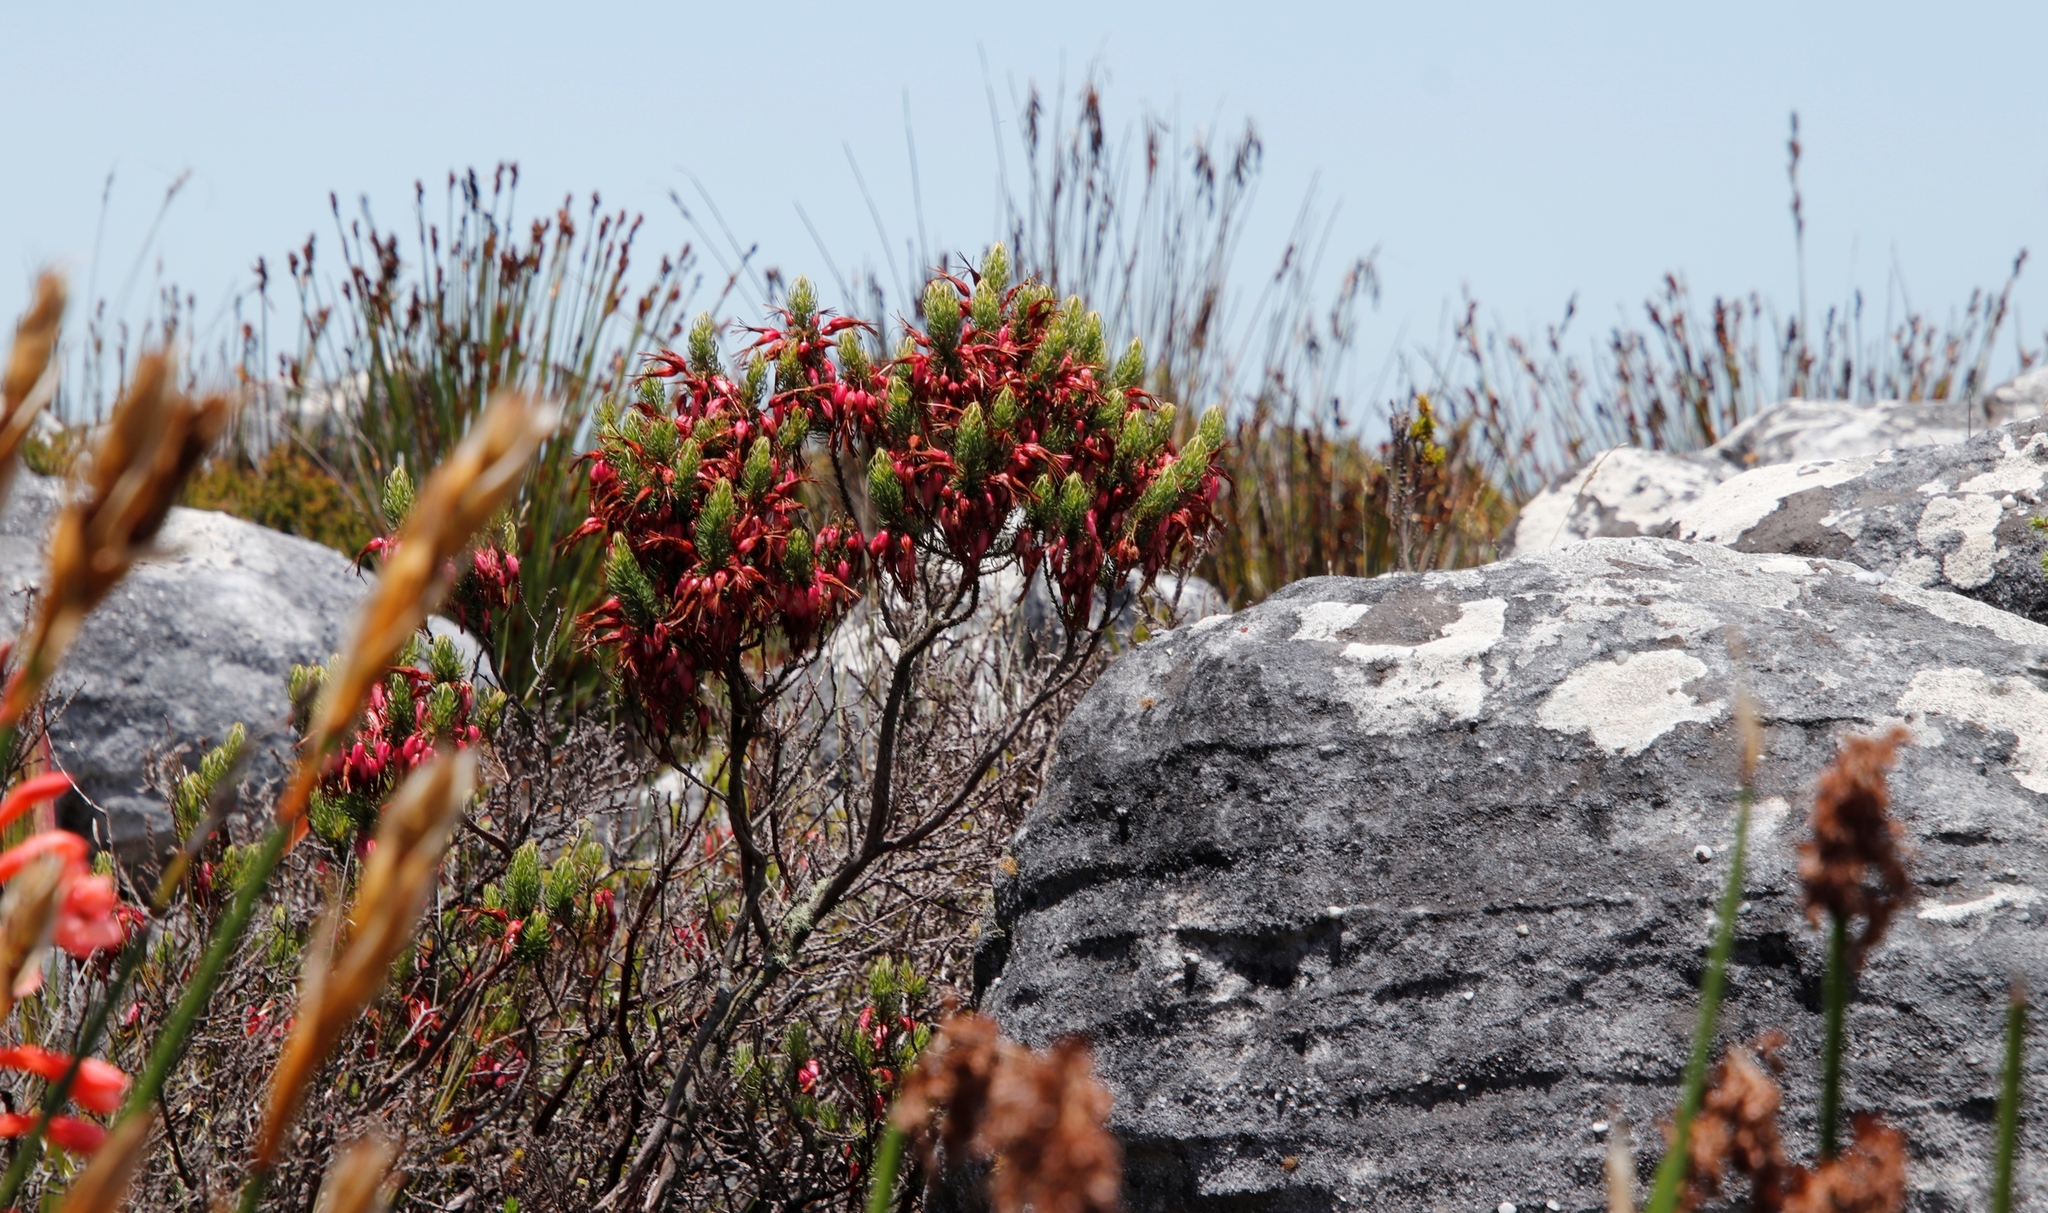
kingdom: Plantae
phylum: Tracheophyta
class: Magnoliopsida
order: Ericales
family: Ericaceae
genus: Erica
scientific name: Erica plukenetii
